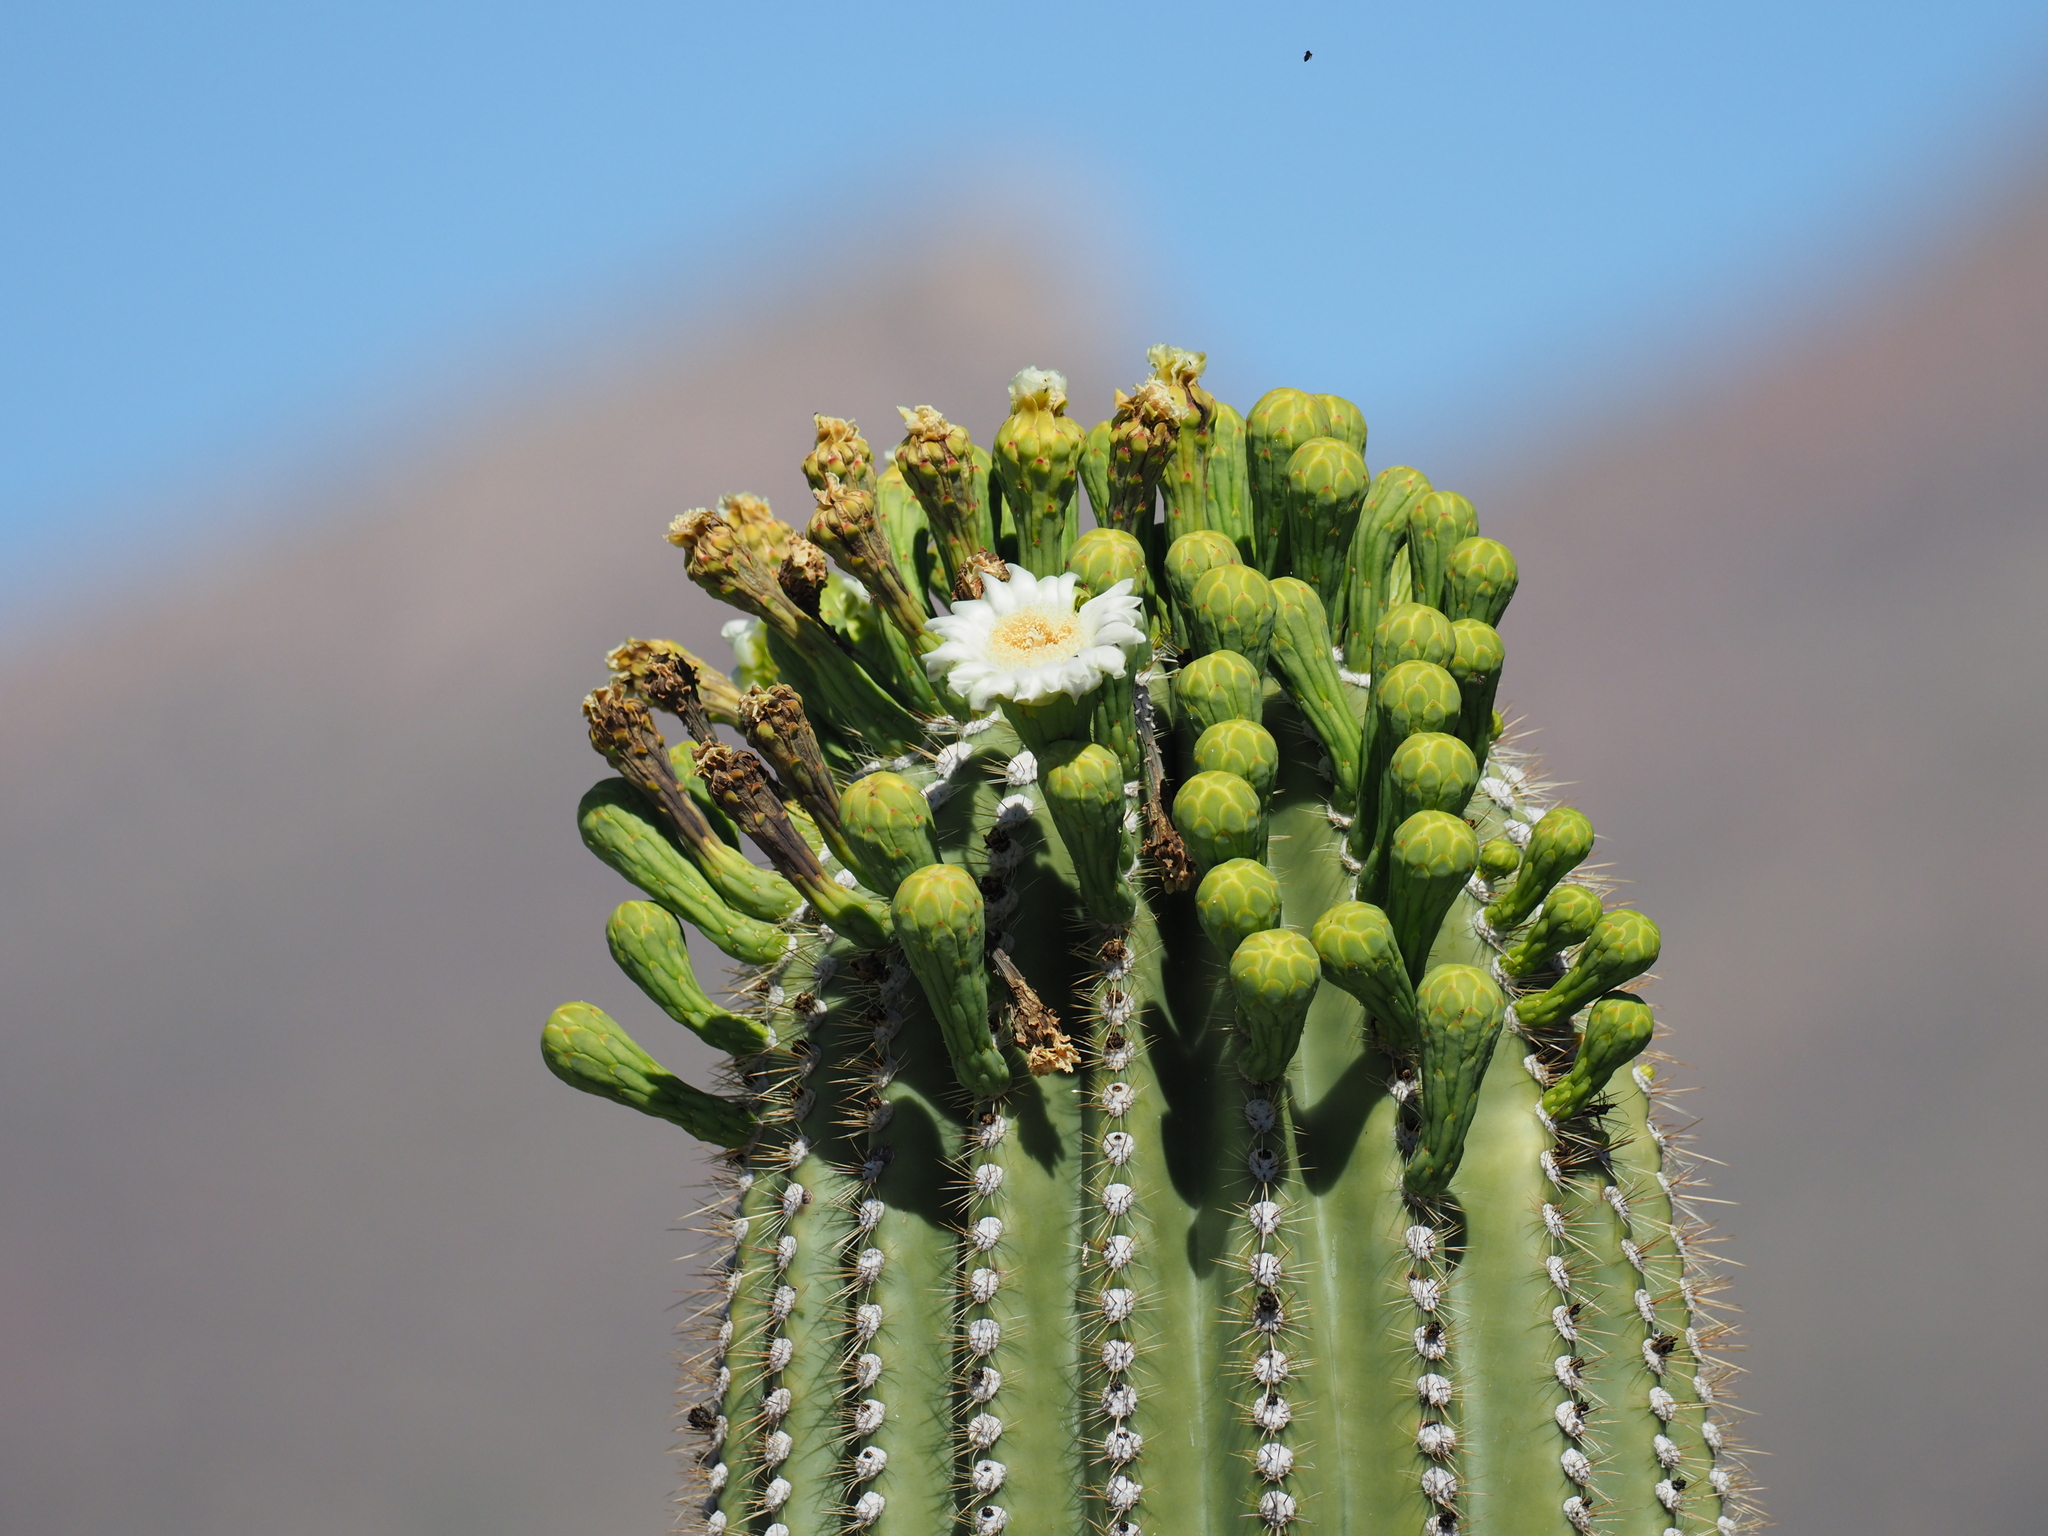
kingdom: Plantae
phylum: Tracheophyta
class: Magnoliopsida
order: Caryophyllales
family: Cactaceae
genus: Carnegiea
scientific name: Carnegiea gigantea
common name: Saguaro
